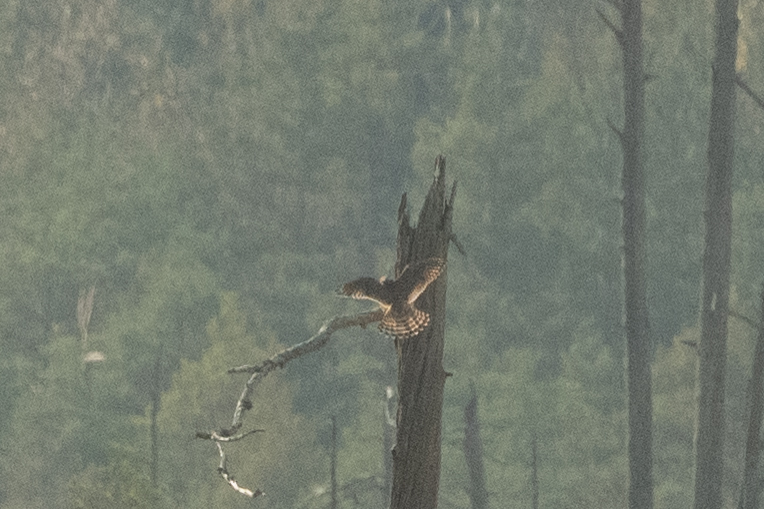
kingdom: Animalia
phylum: Chordata
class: Aves
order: Falconiformes
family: Falconidae
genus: Falco
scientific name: Falco tinnunculus
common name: Common kestrel
